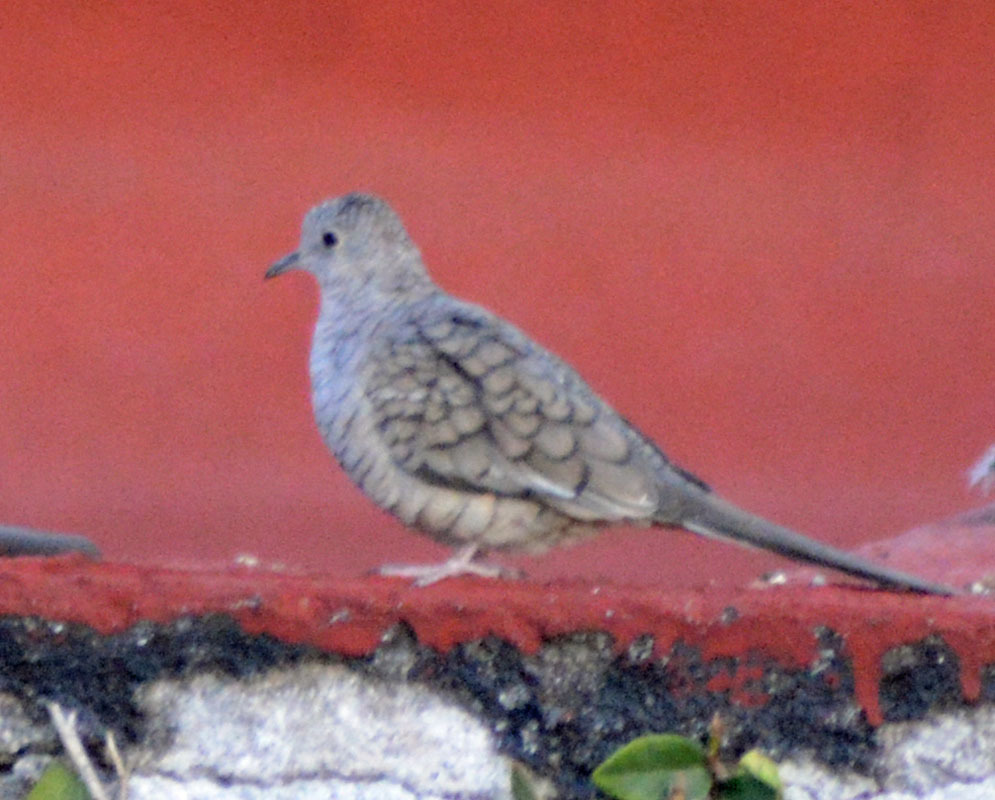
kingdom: Animalia
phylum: Chordata
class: Aves
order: Columbiformes
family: Columbidae
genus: Columbina
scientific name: Columbina inca
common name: Inca dove
